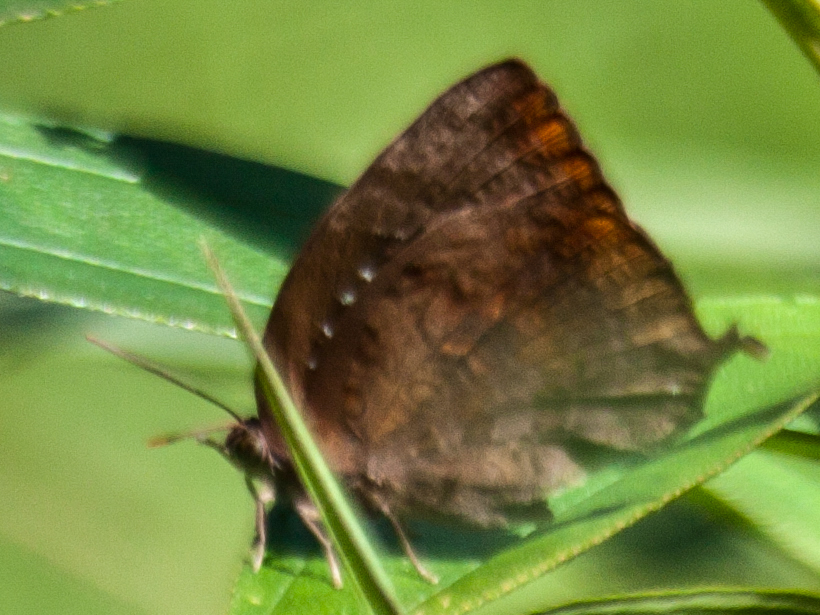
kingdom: Animalia
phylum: Arthropoda
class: Insecta
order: Lepidoptera
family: Lycaenidae
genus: Arhopala
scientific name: Arhopala centaurus
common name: Dull oak-blue
